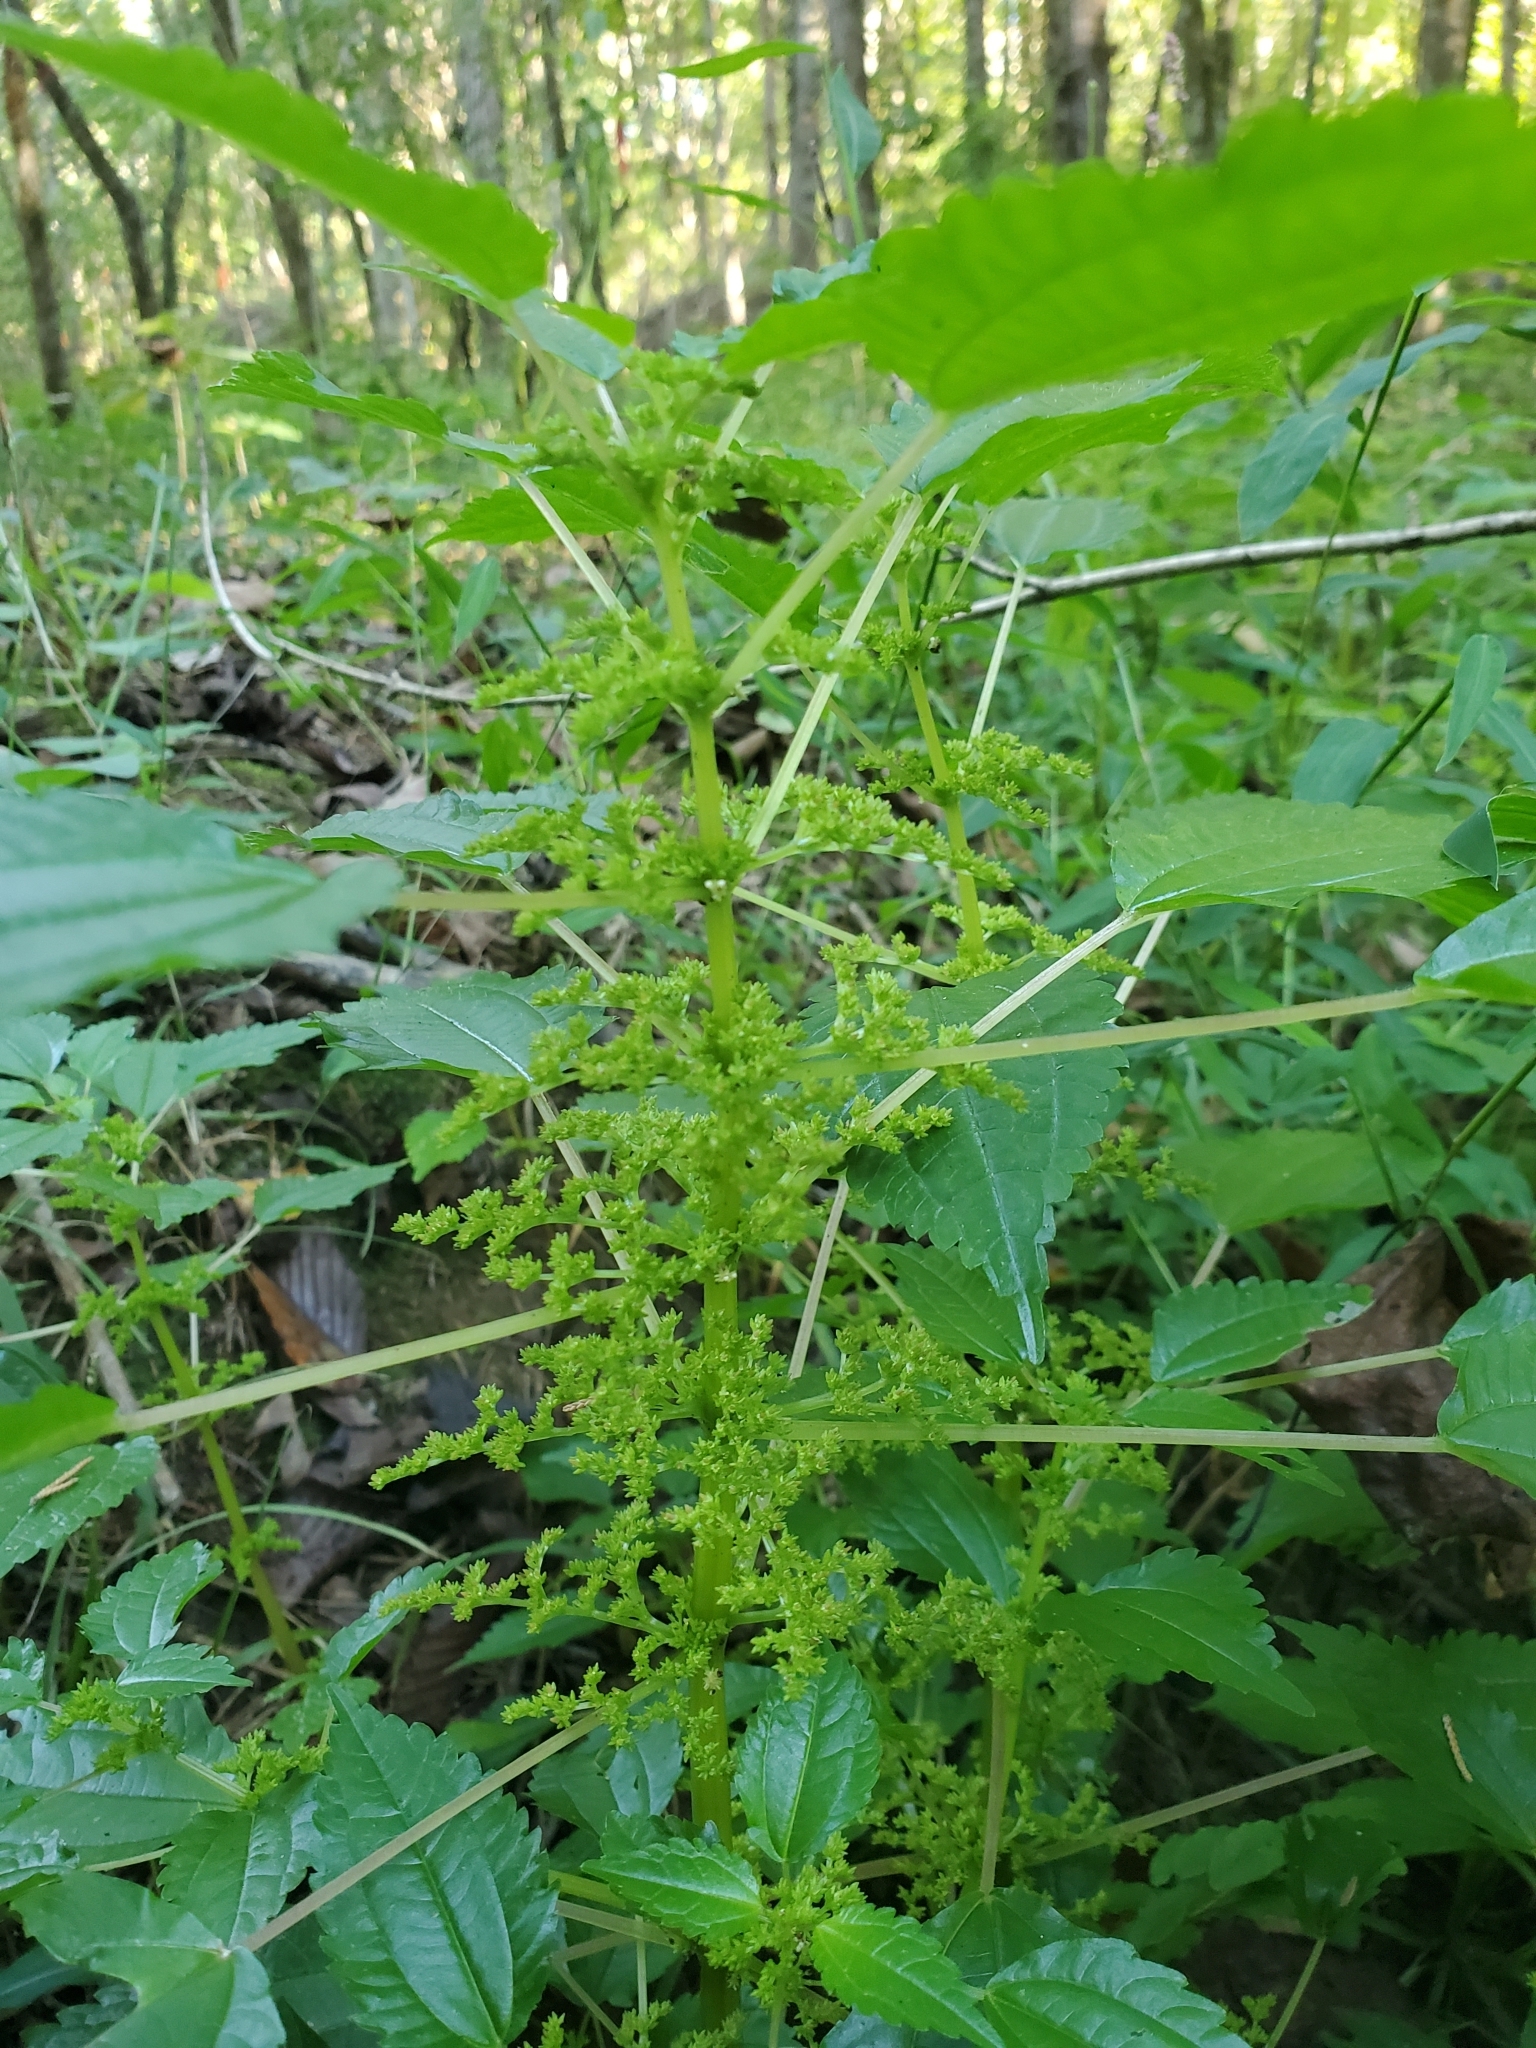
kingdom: Plantae
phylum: Tracheophyta
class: Magnoliopsida
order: Rosales
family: Urticaceae
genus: Boehmeria
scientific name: Boehmeria cylindrica
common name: Bog-hemp
